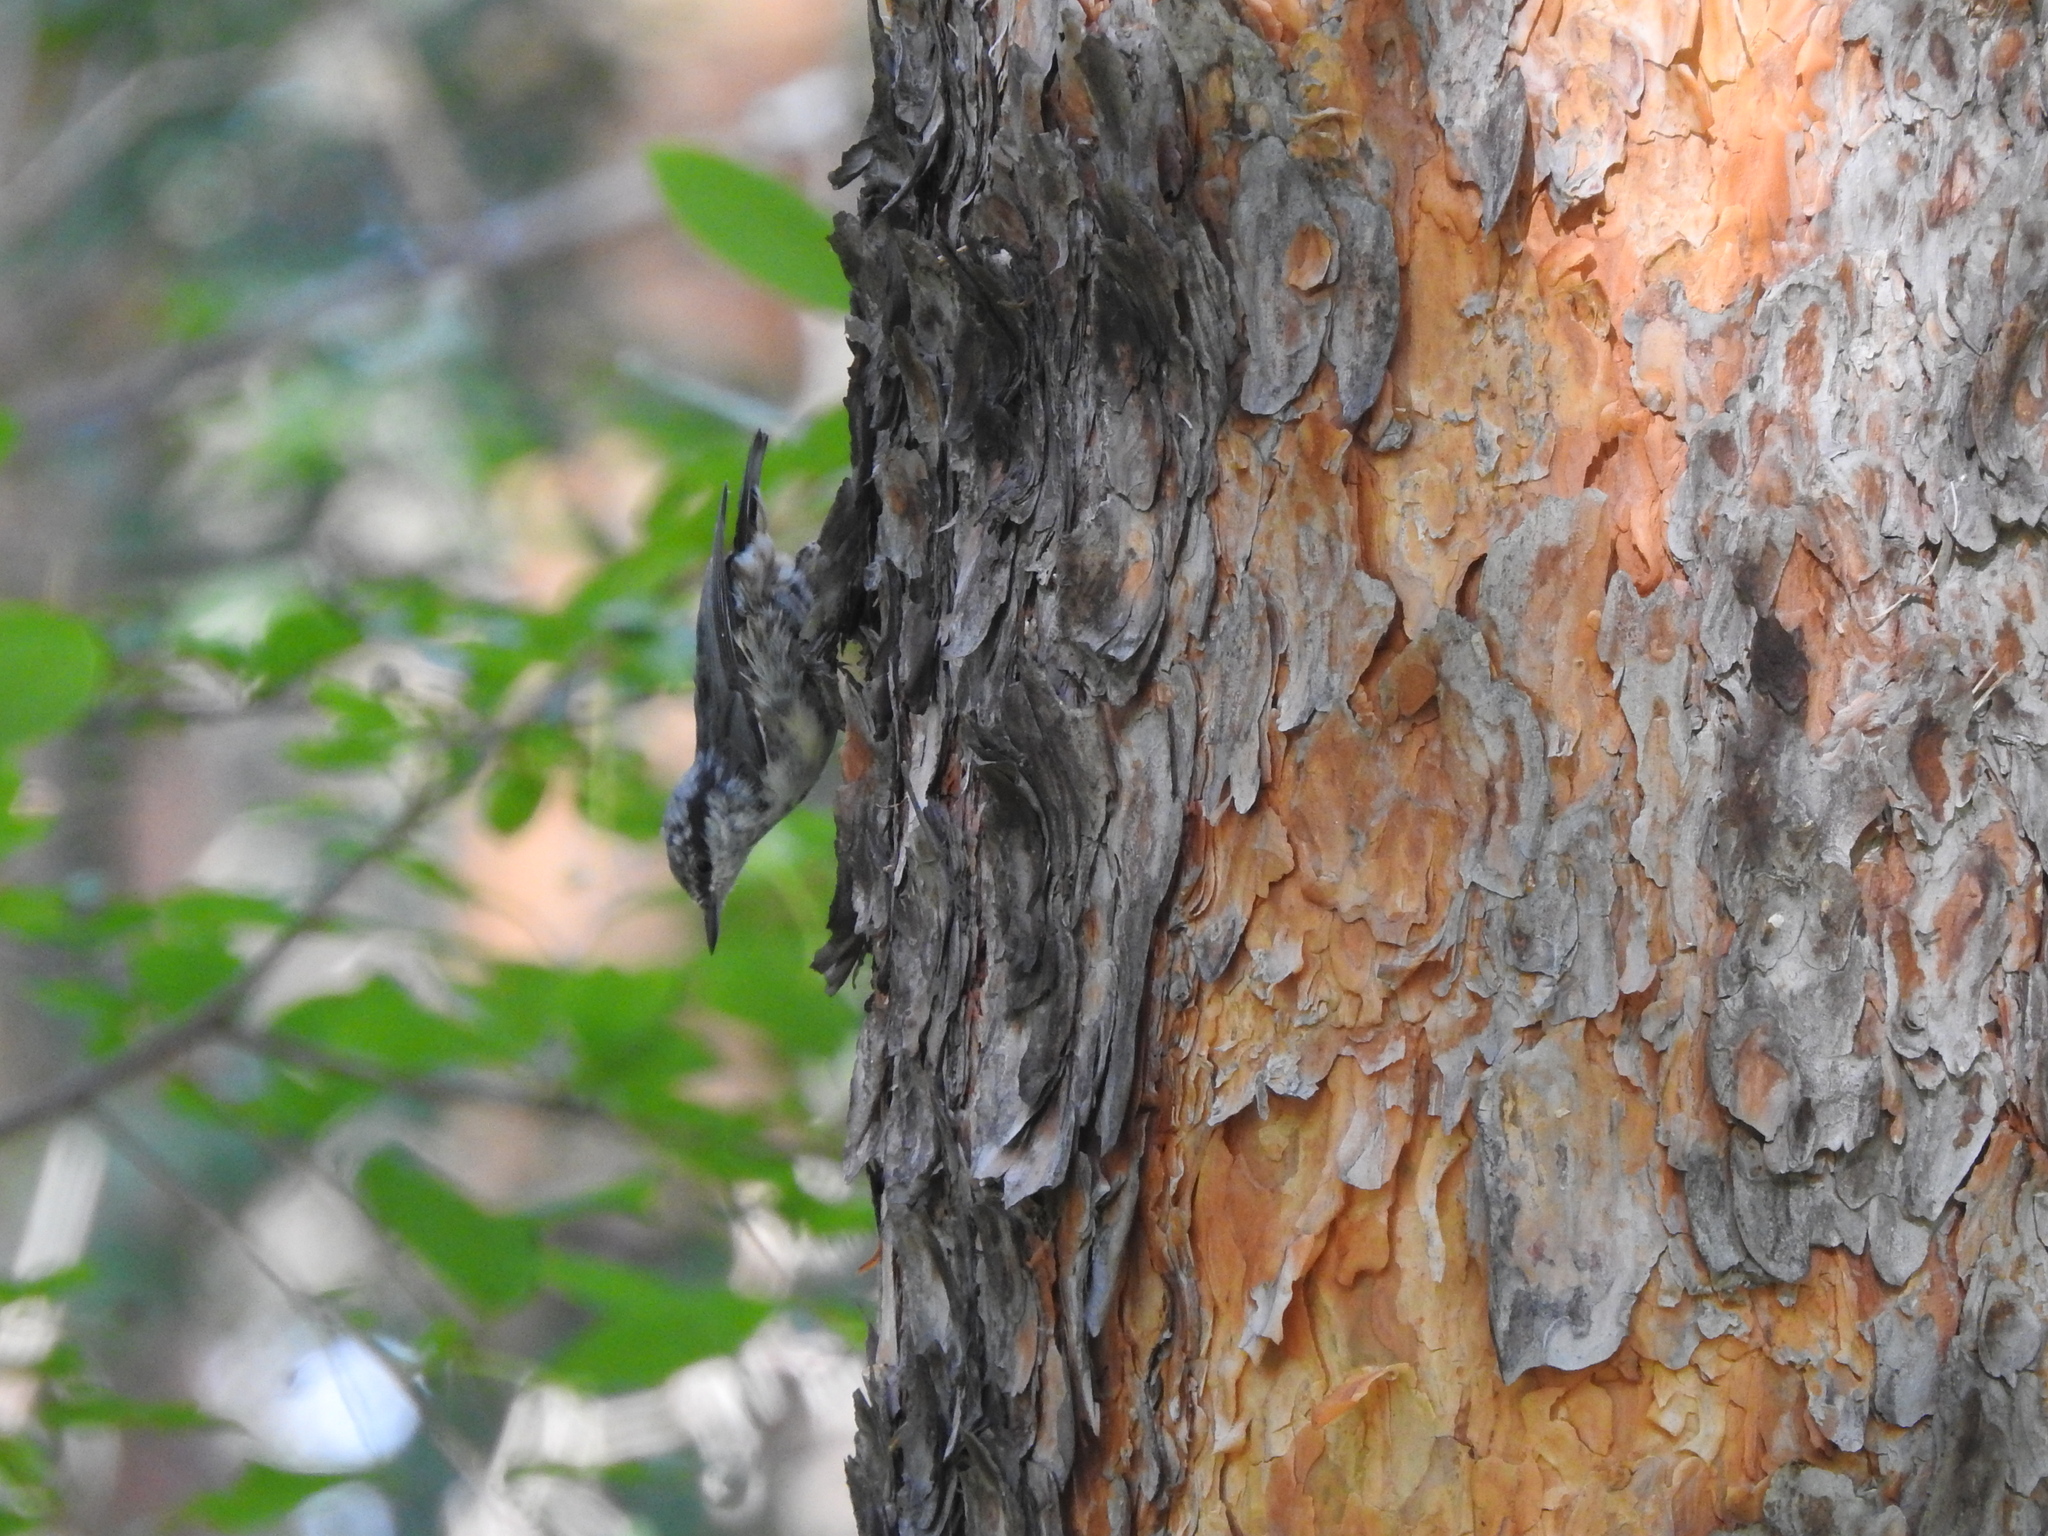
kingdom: Animalia
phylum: Chordata
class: Aves
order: Passeriformes
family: Sittidae
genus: Sitta
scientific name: Sitta europaea
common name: Eurasian nuthatch
